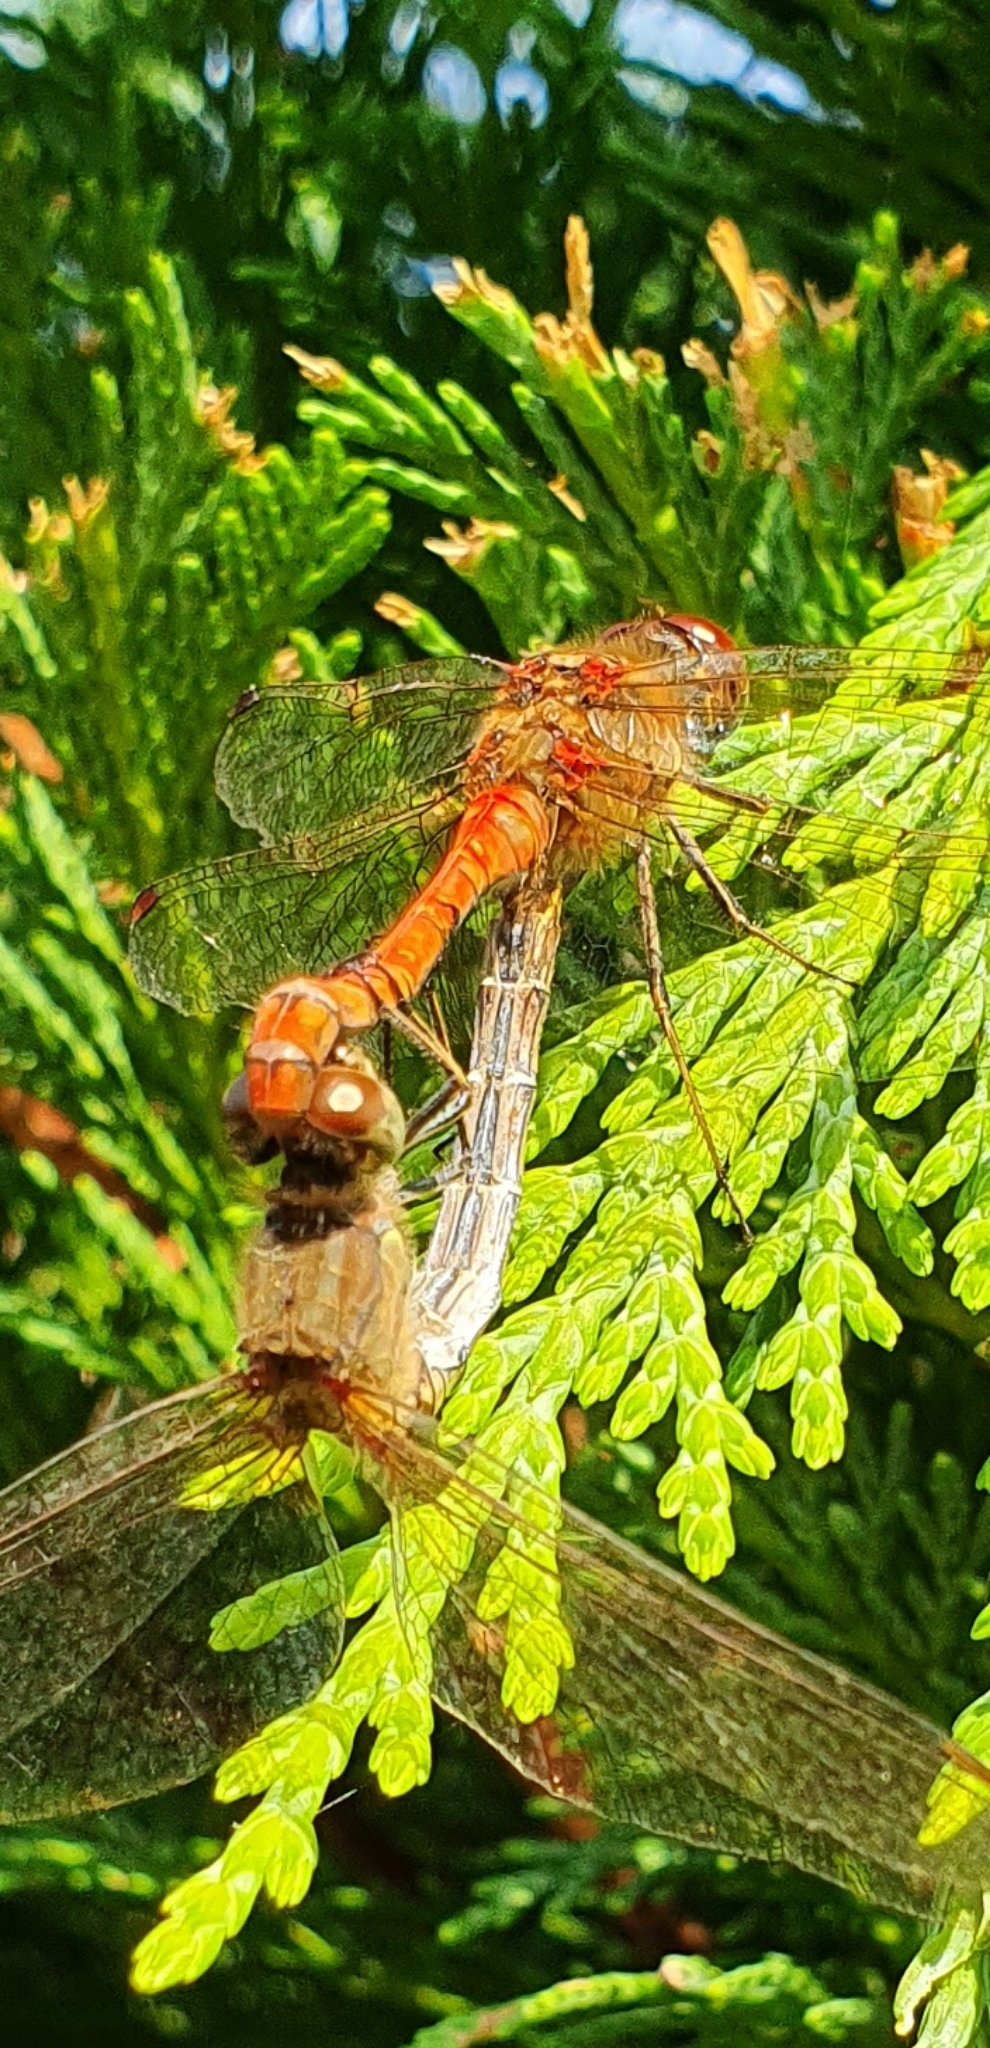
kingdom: Animalia
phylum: Arthropoda
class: Insecta
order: Odonata
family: Libellulidae
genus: Sympetrum
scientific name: Sympetrum striolatum
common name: Common darter
